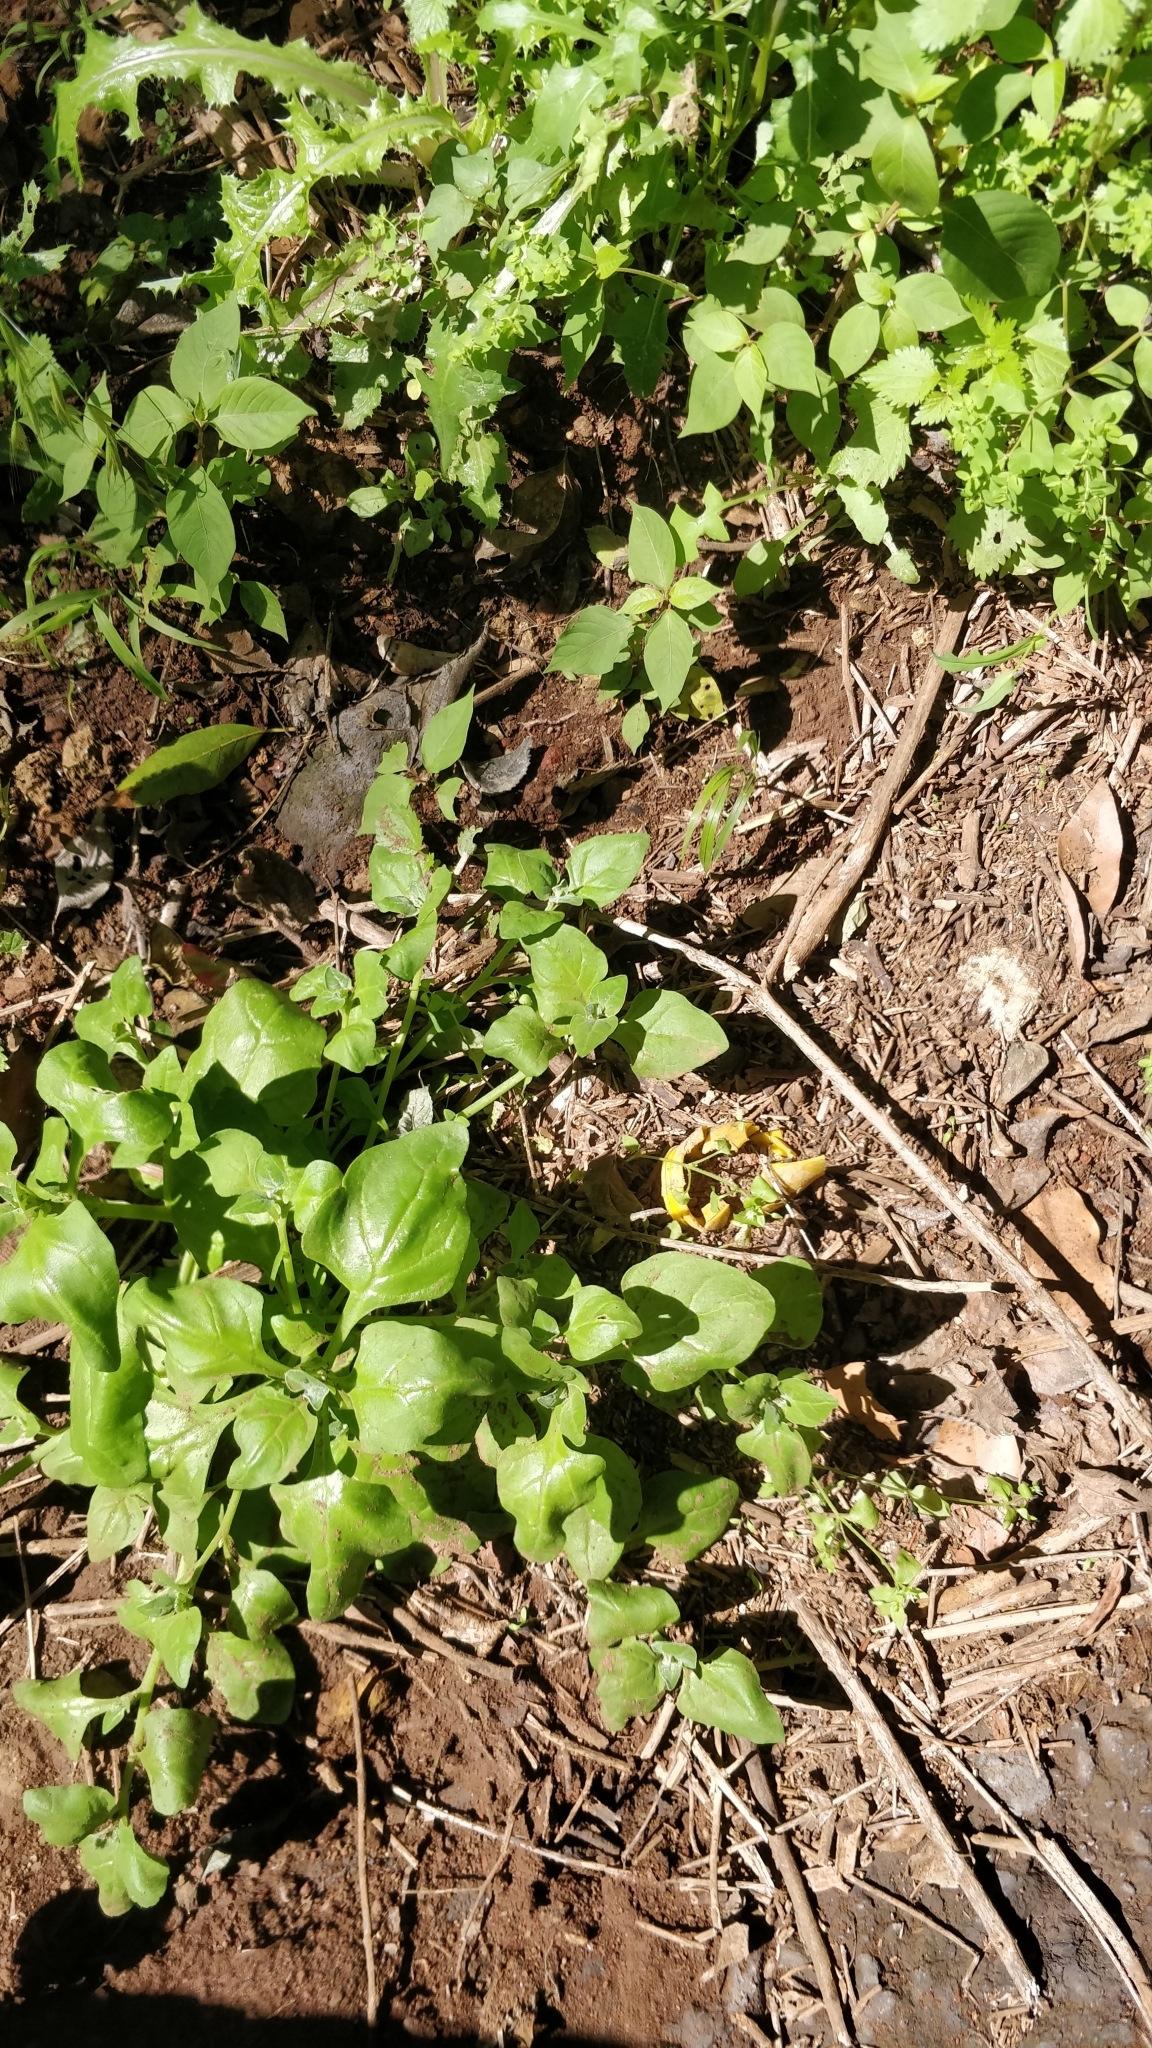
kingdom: Plantae
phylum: Tracheophyta
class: Magnoliopsida
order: Caryophyllales
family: Aizoaceae
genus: Tetragonia
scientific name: Tetragonia tetragonoides
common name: New zealand-spinach
